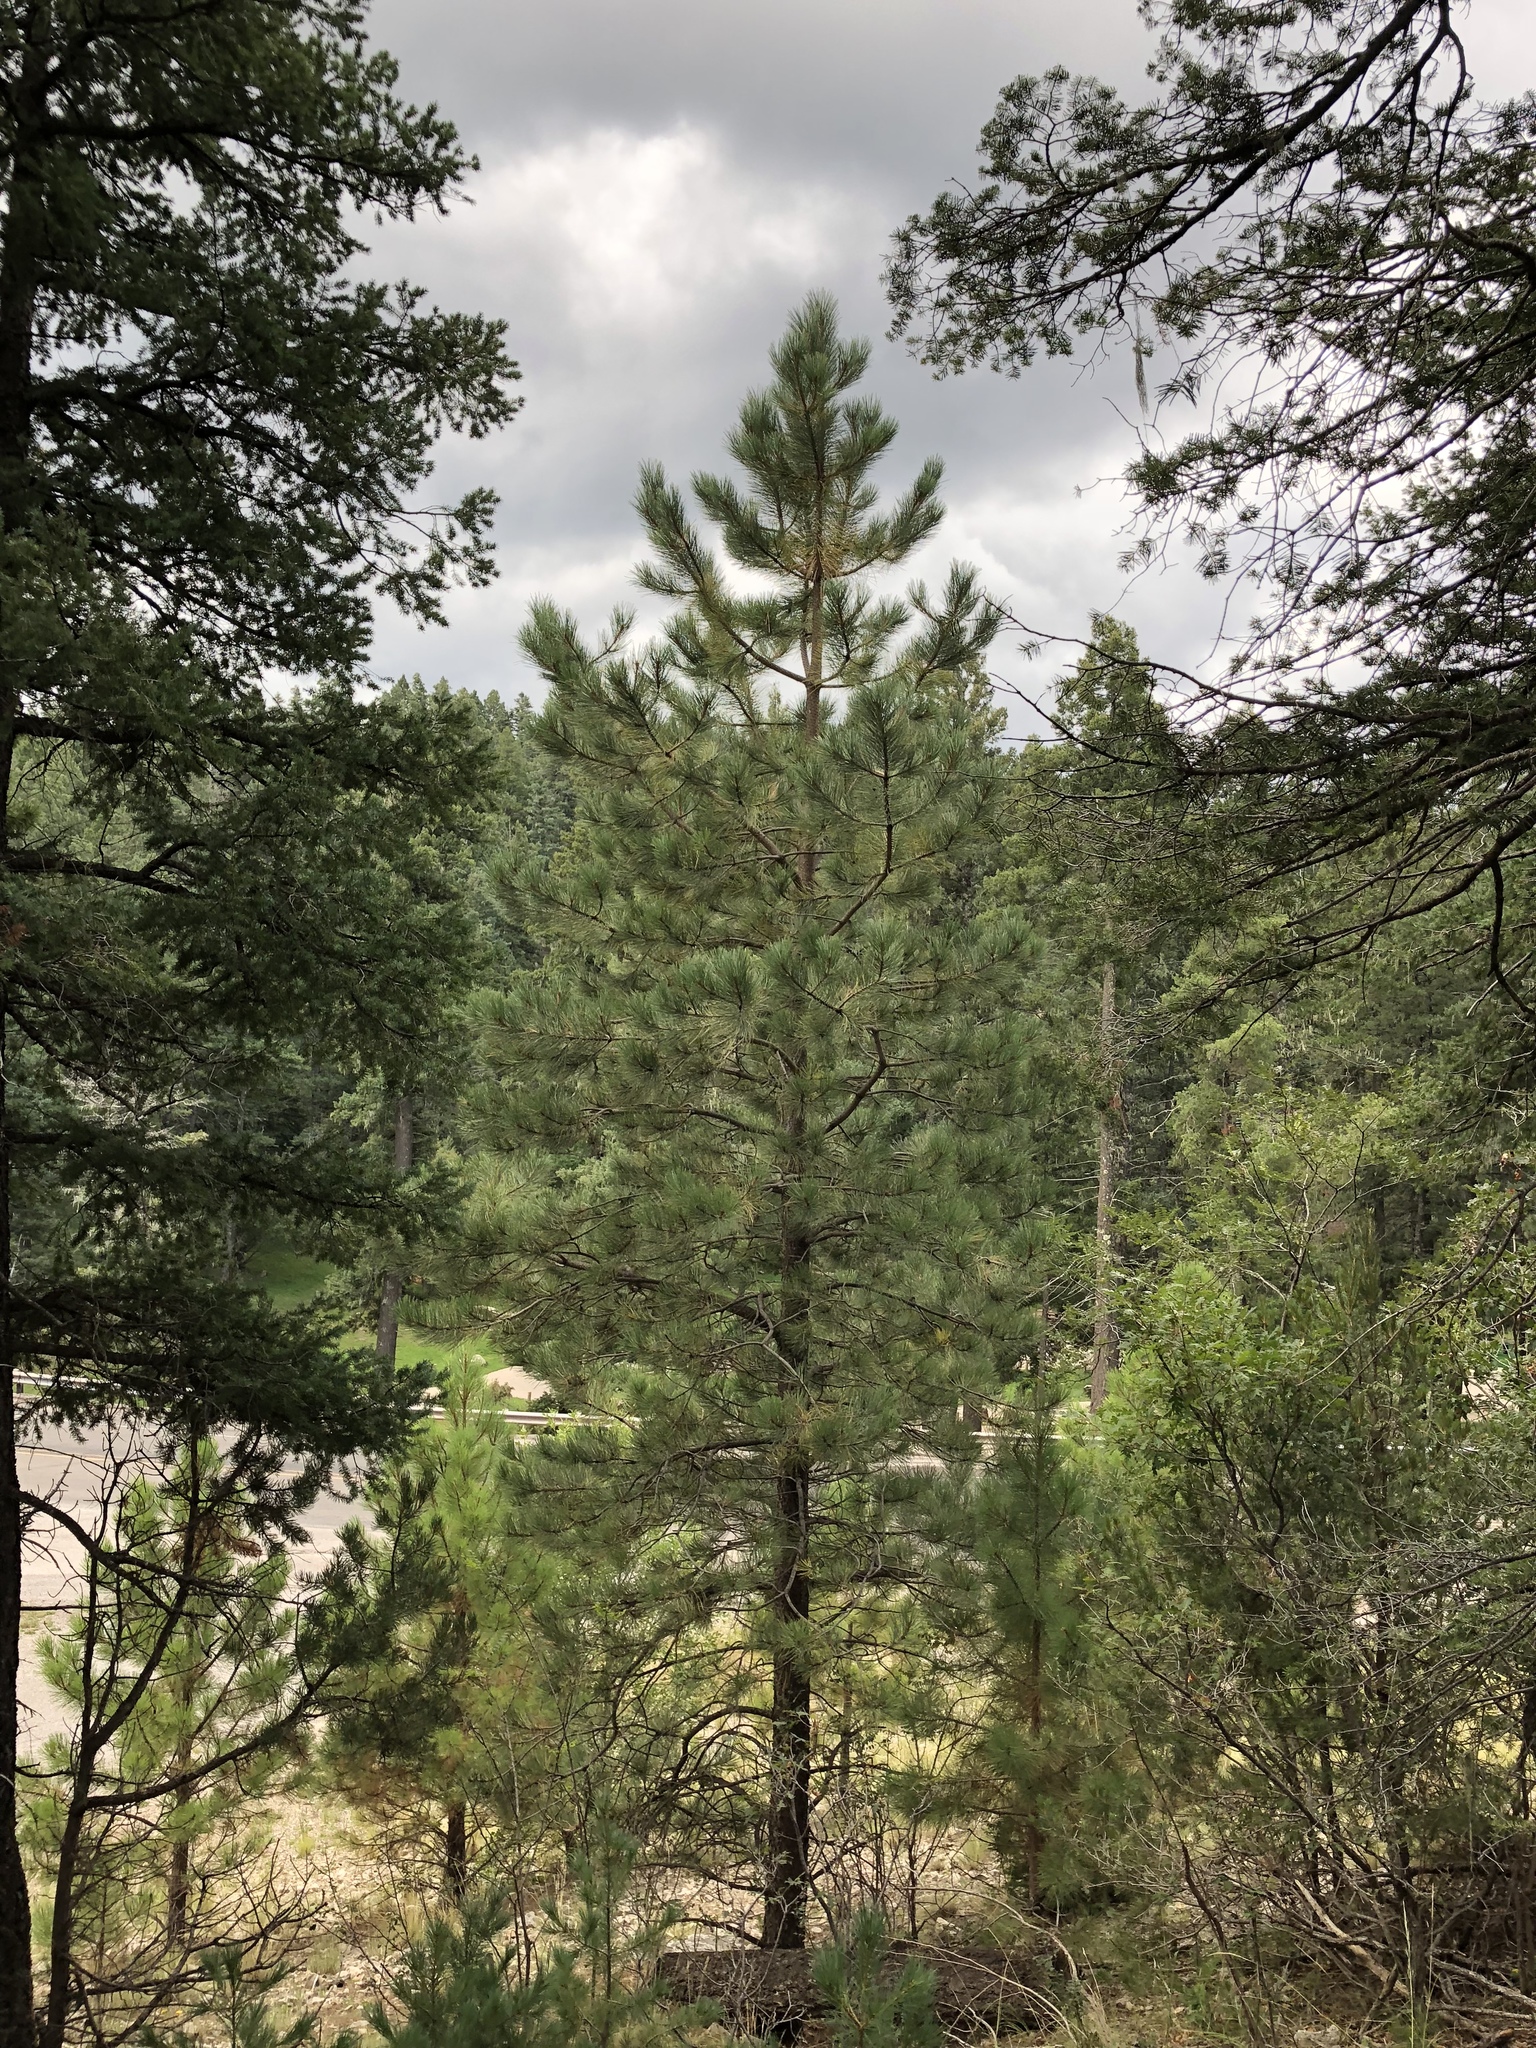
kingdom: Plantae
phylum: Tracheophyta
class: Pinopsida
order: Pinales
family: Pinaceae
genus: Pinus
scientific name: Pinus strobiformis
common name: Southwestern white pine
